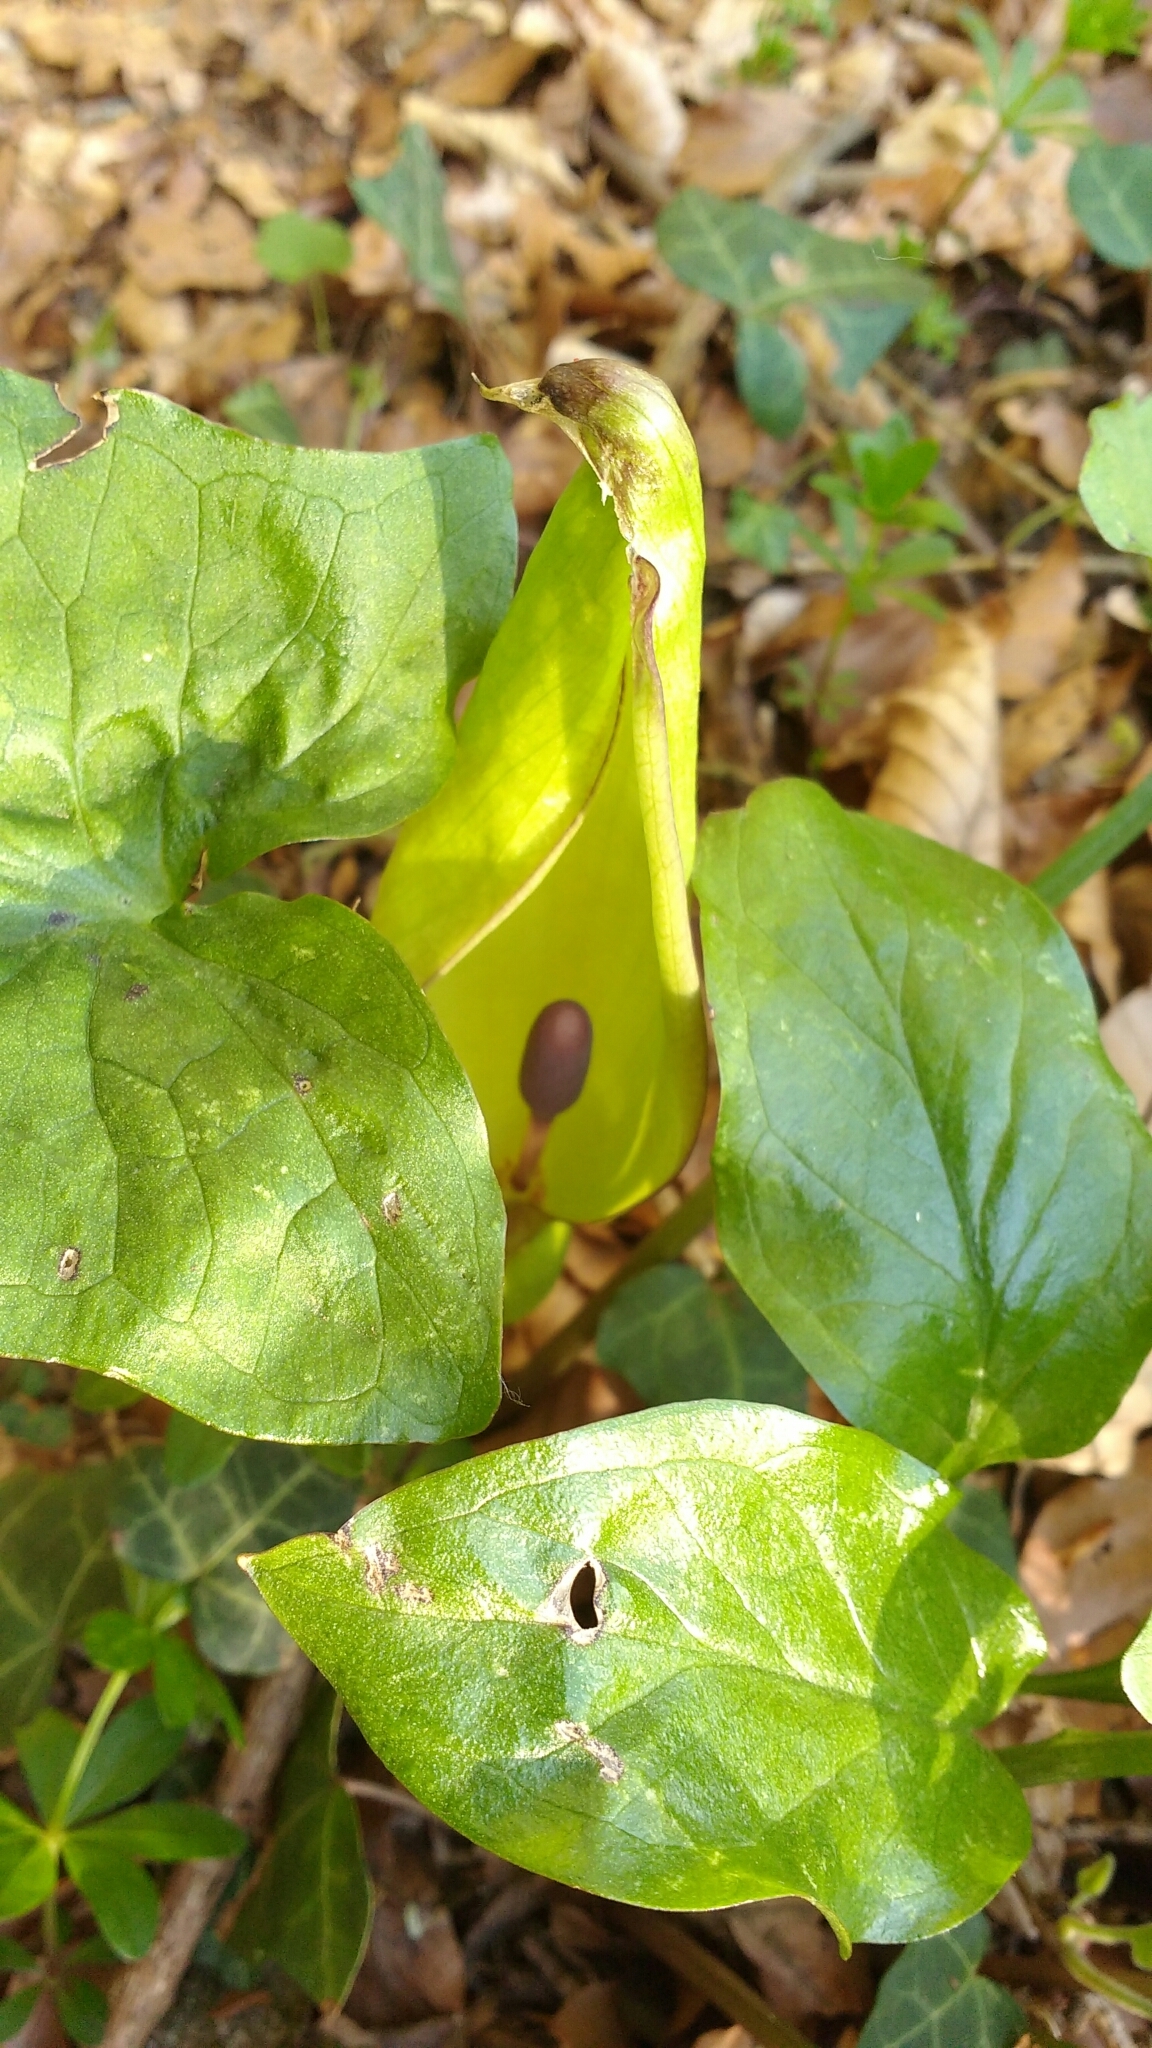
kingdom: Plantae
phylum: Tracheophyta
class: Liliopsida
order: Alismatales
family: Araceae
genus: Arum
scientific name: Arum maculatum
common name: Lords-and-ladies
